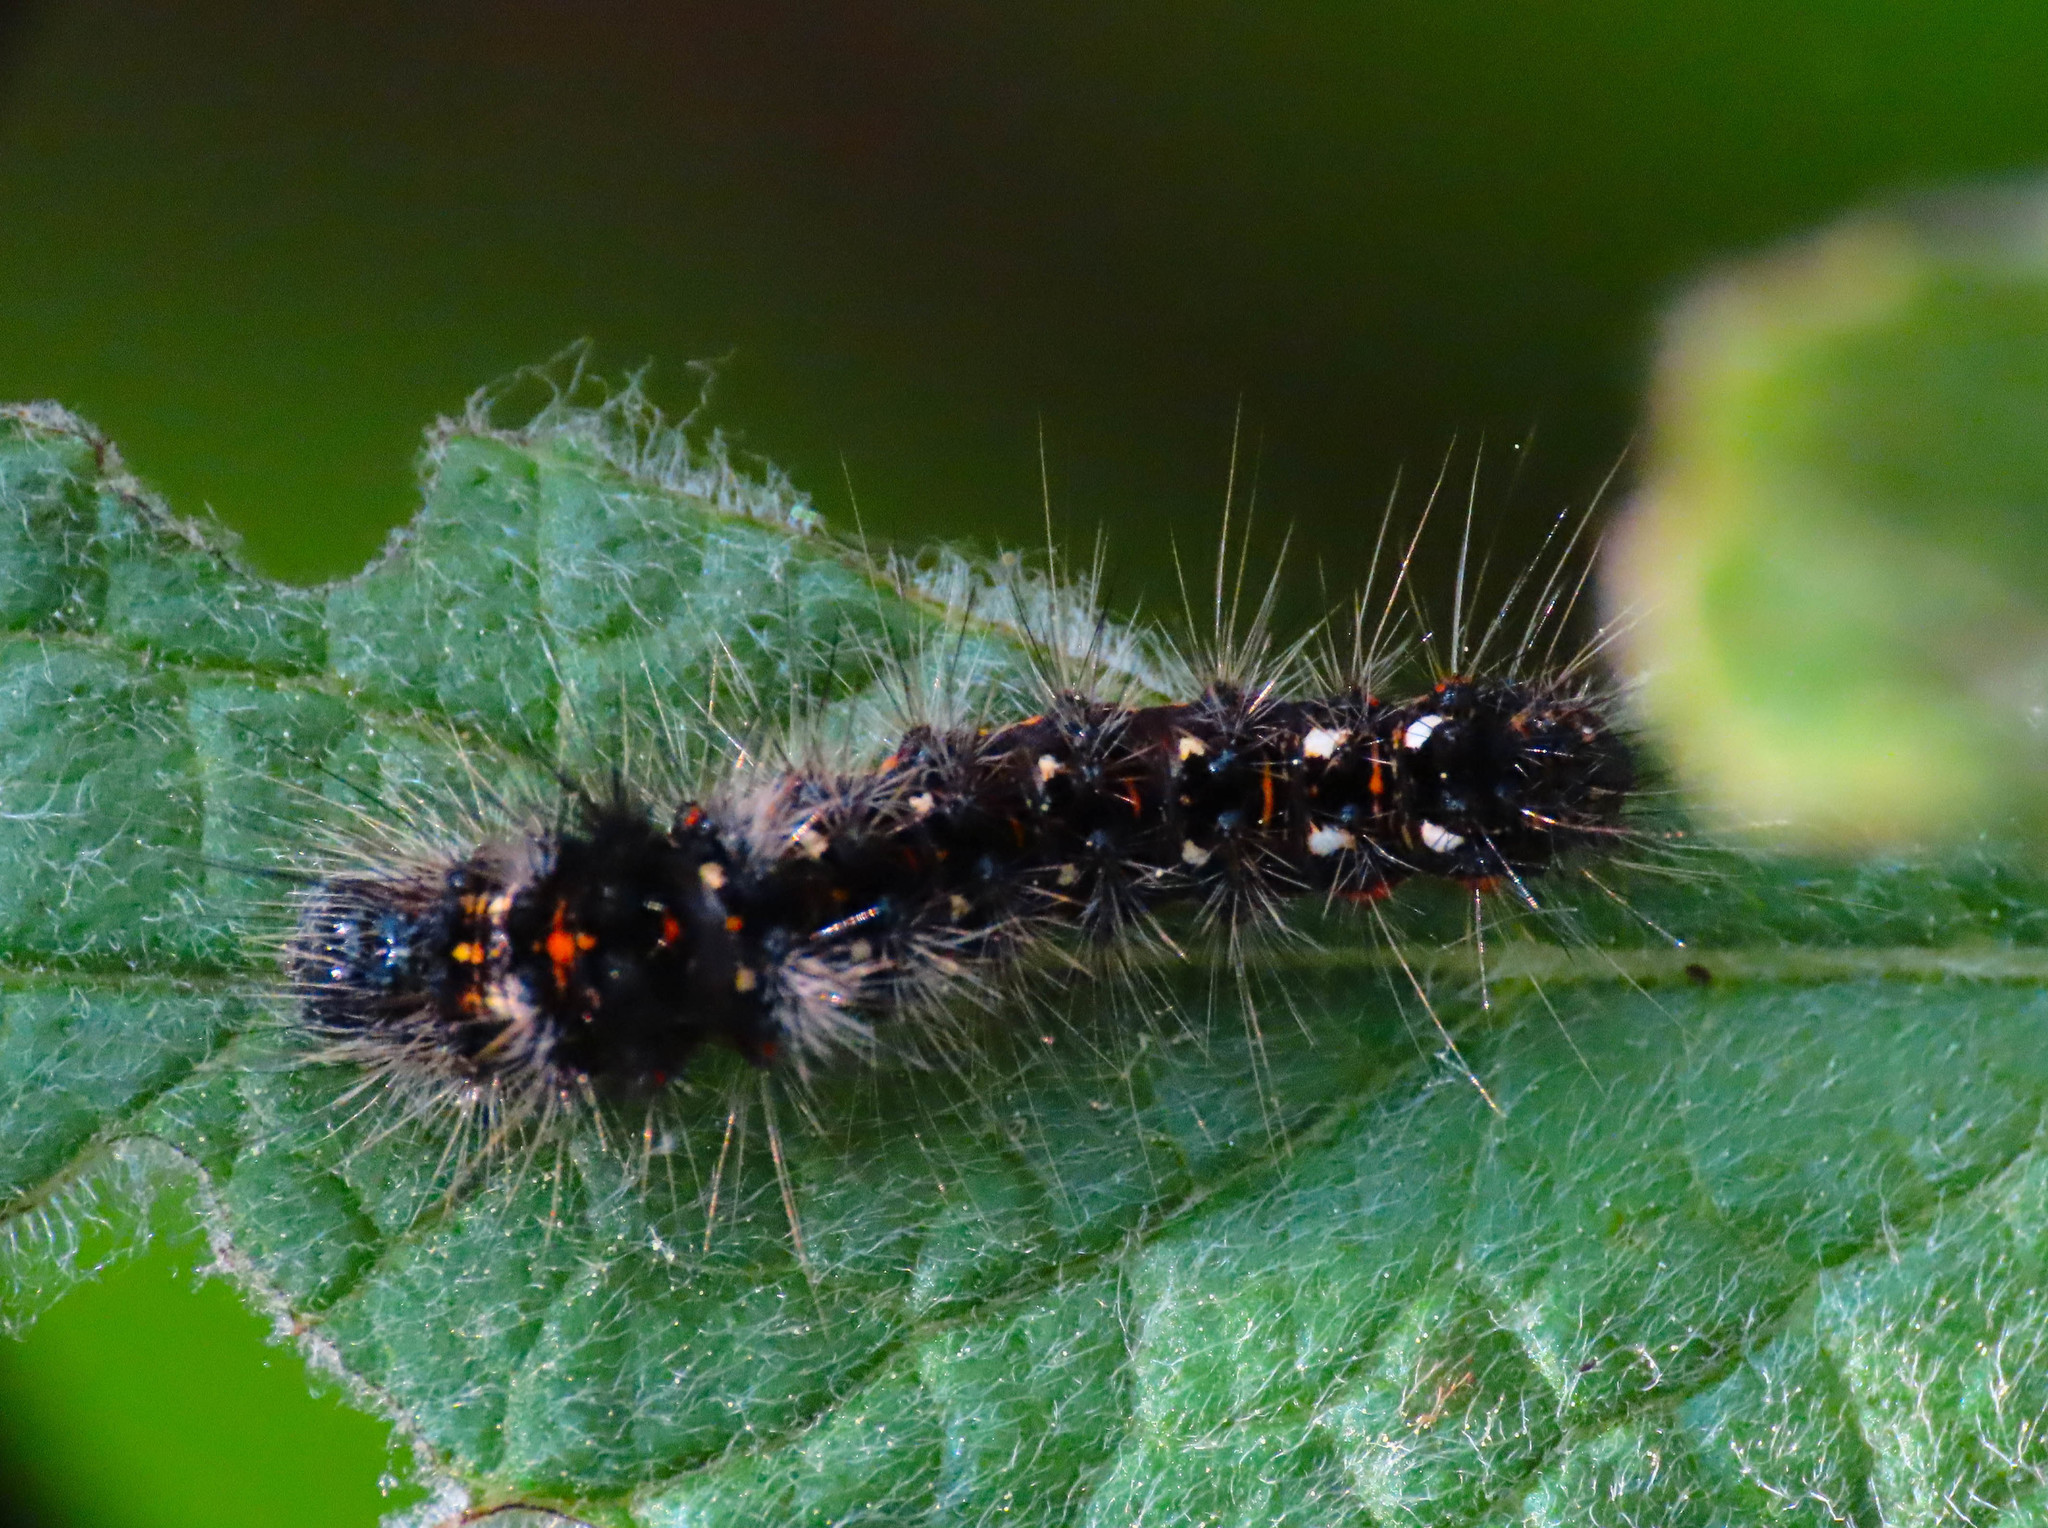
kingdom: Animalia
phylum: Arthropoda
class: Insecta
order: Lepidoptera
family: Noctuidae
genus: Acronicta
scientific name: Acronicta rumicis
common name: Knot grass
